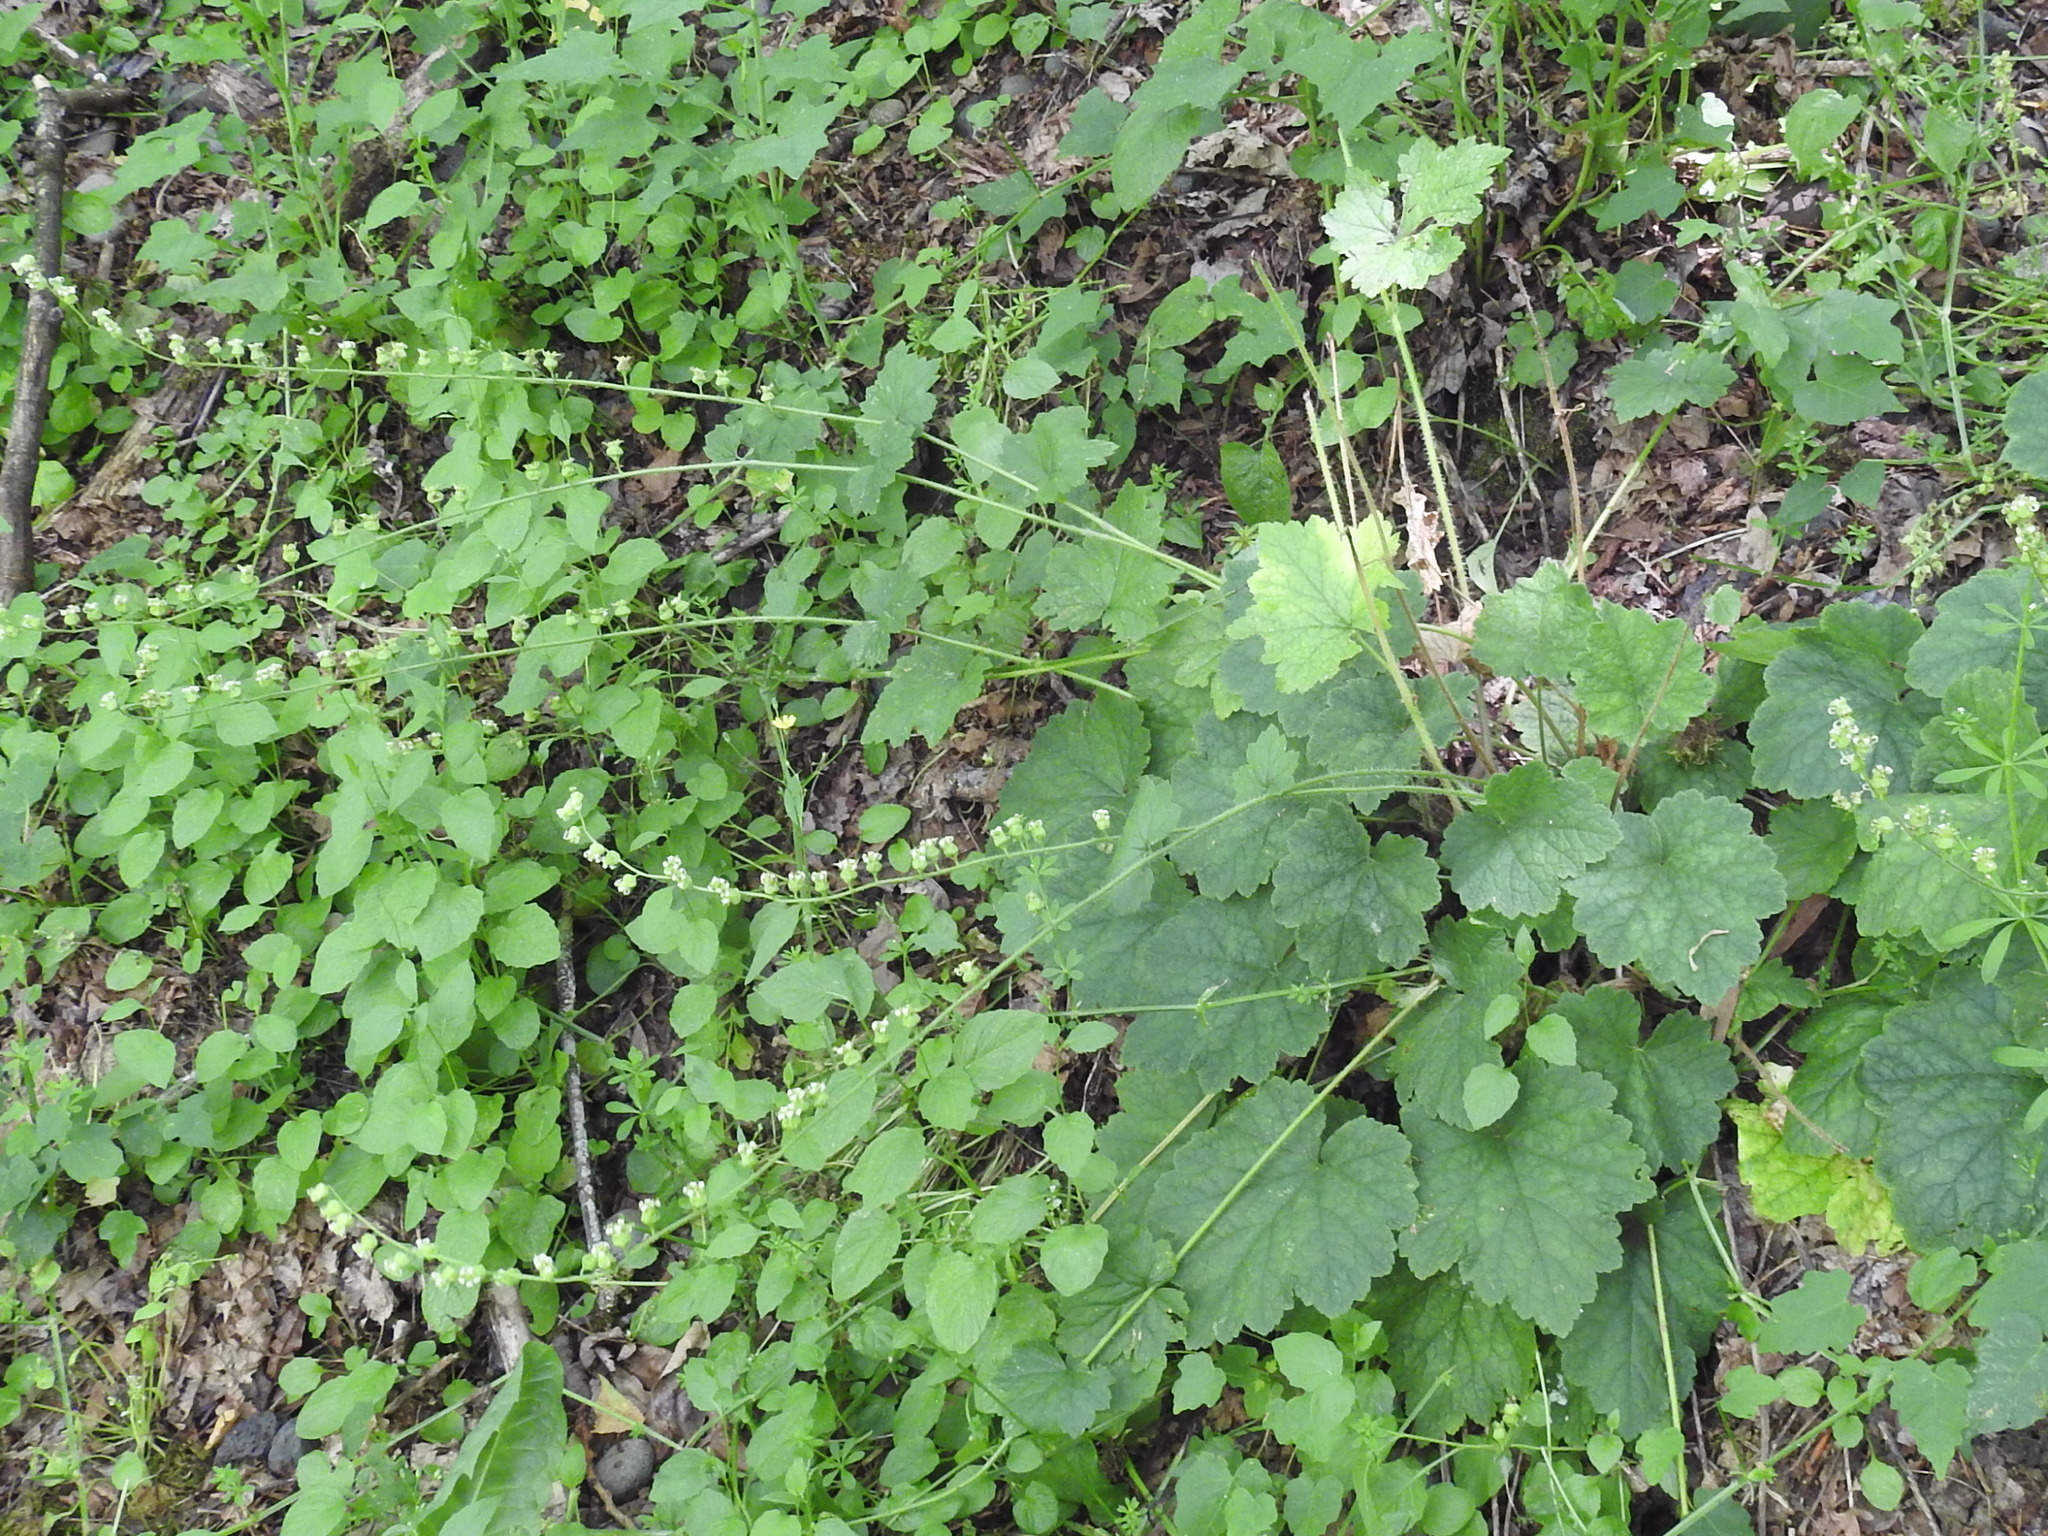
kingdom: Plantae
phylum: Tracheophyta
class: Magnoliopsida
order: Saxifragales
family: Saxifragaceae
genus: Tellima
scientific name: Tellima grandiflora
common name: Fringecups
